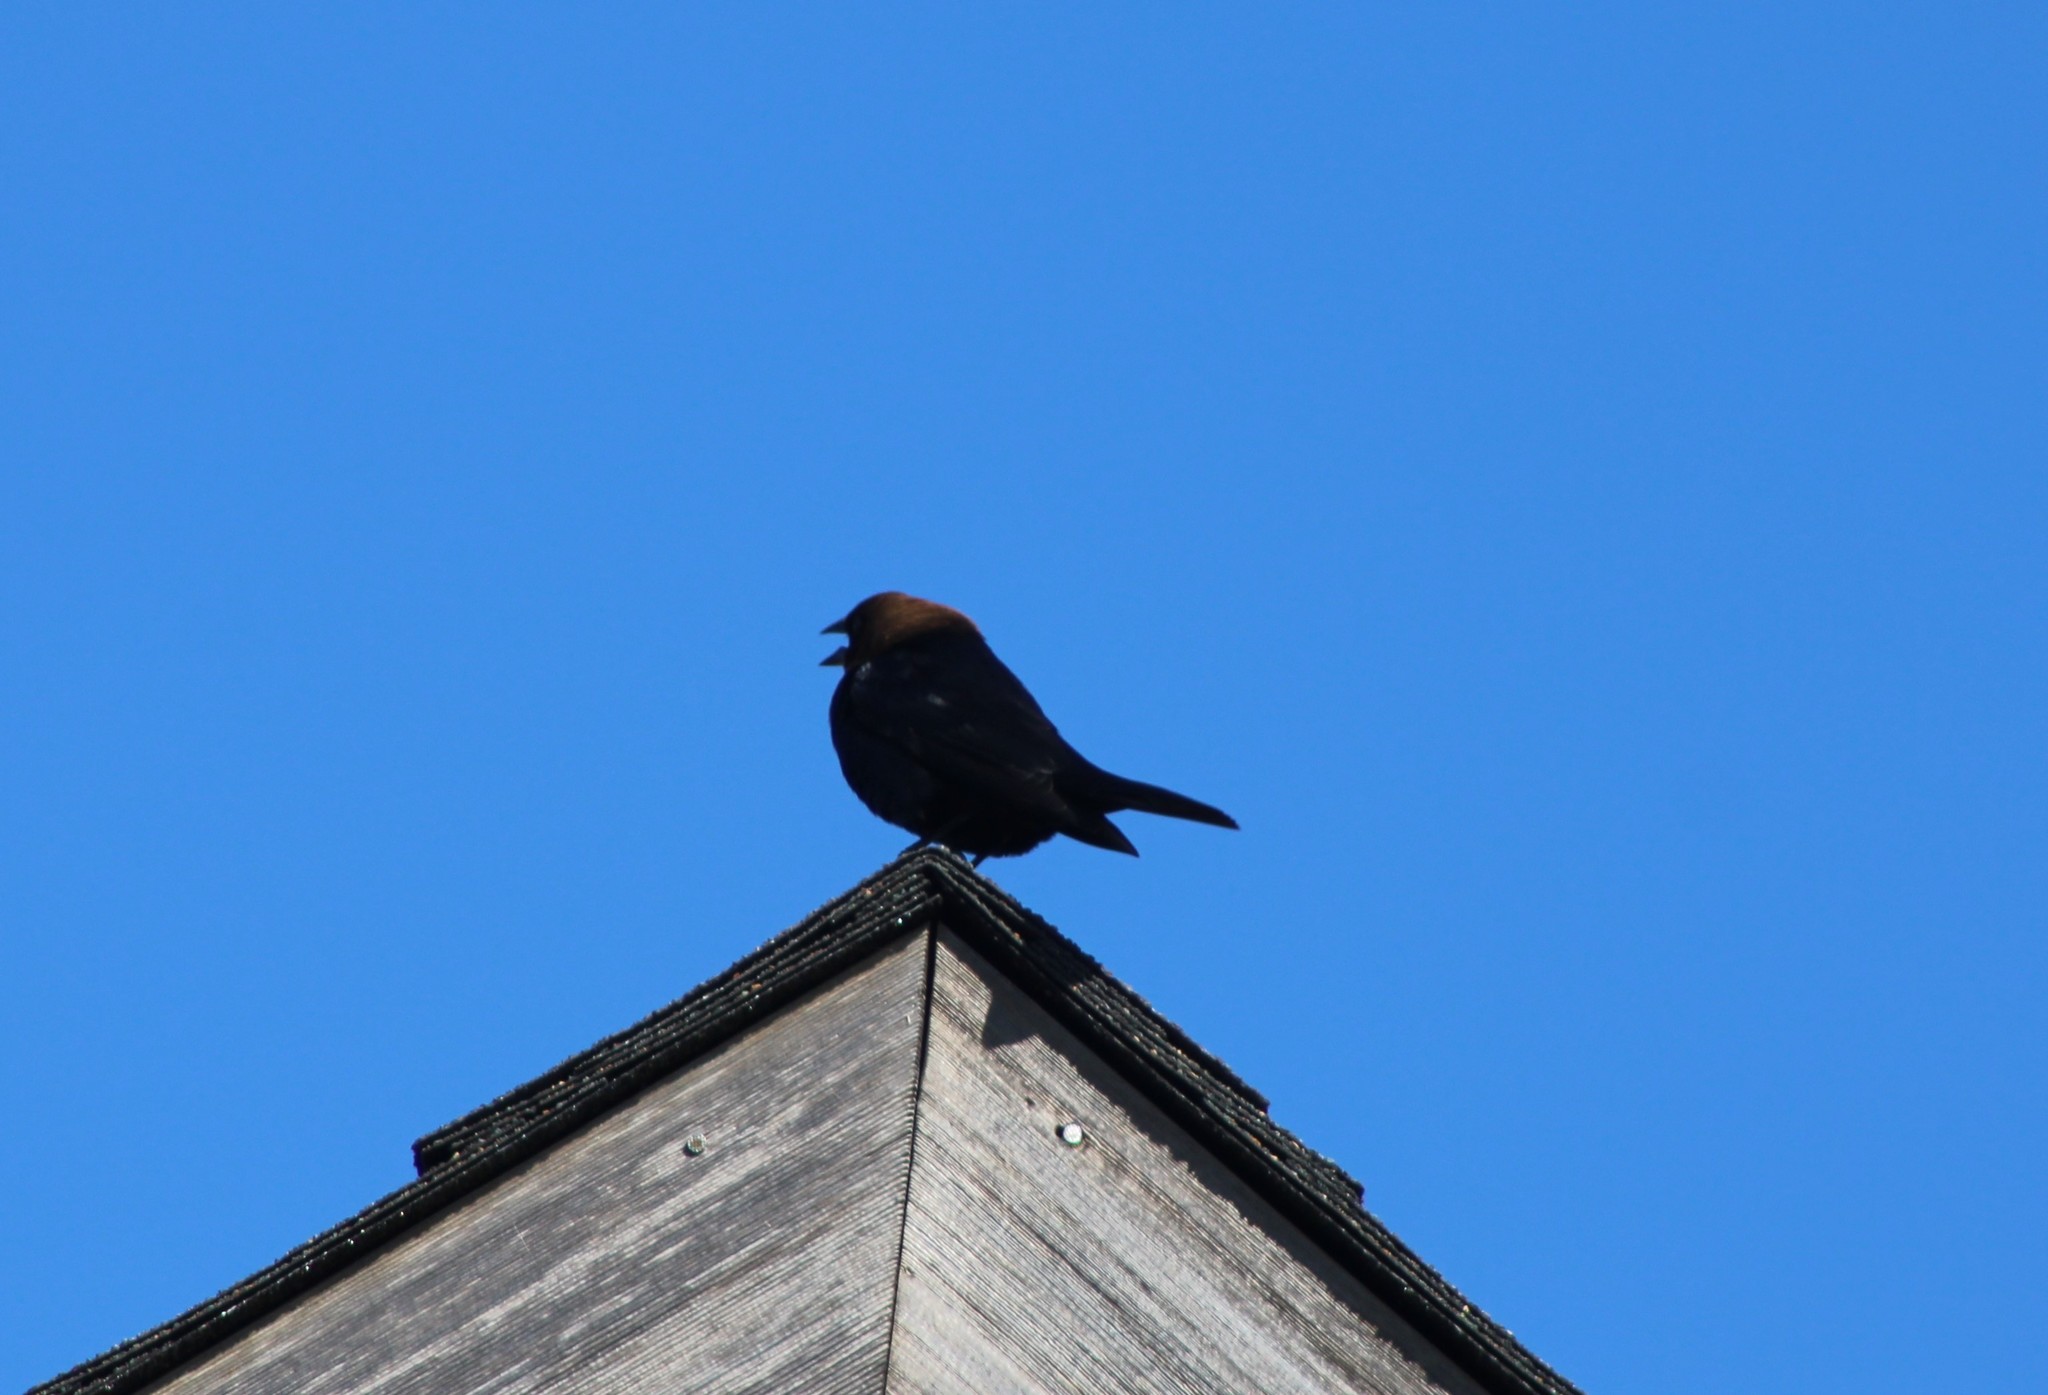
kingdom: Animalia
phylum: Chordata
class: Aves
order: Passeriformes
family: Icteridae
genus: Molothrus
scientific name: Molothrus ater
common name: Brown-headed cowbird
